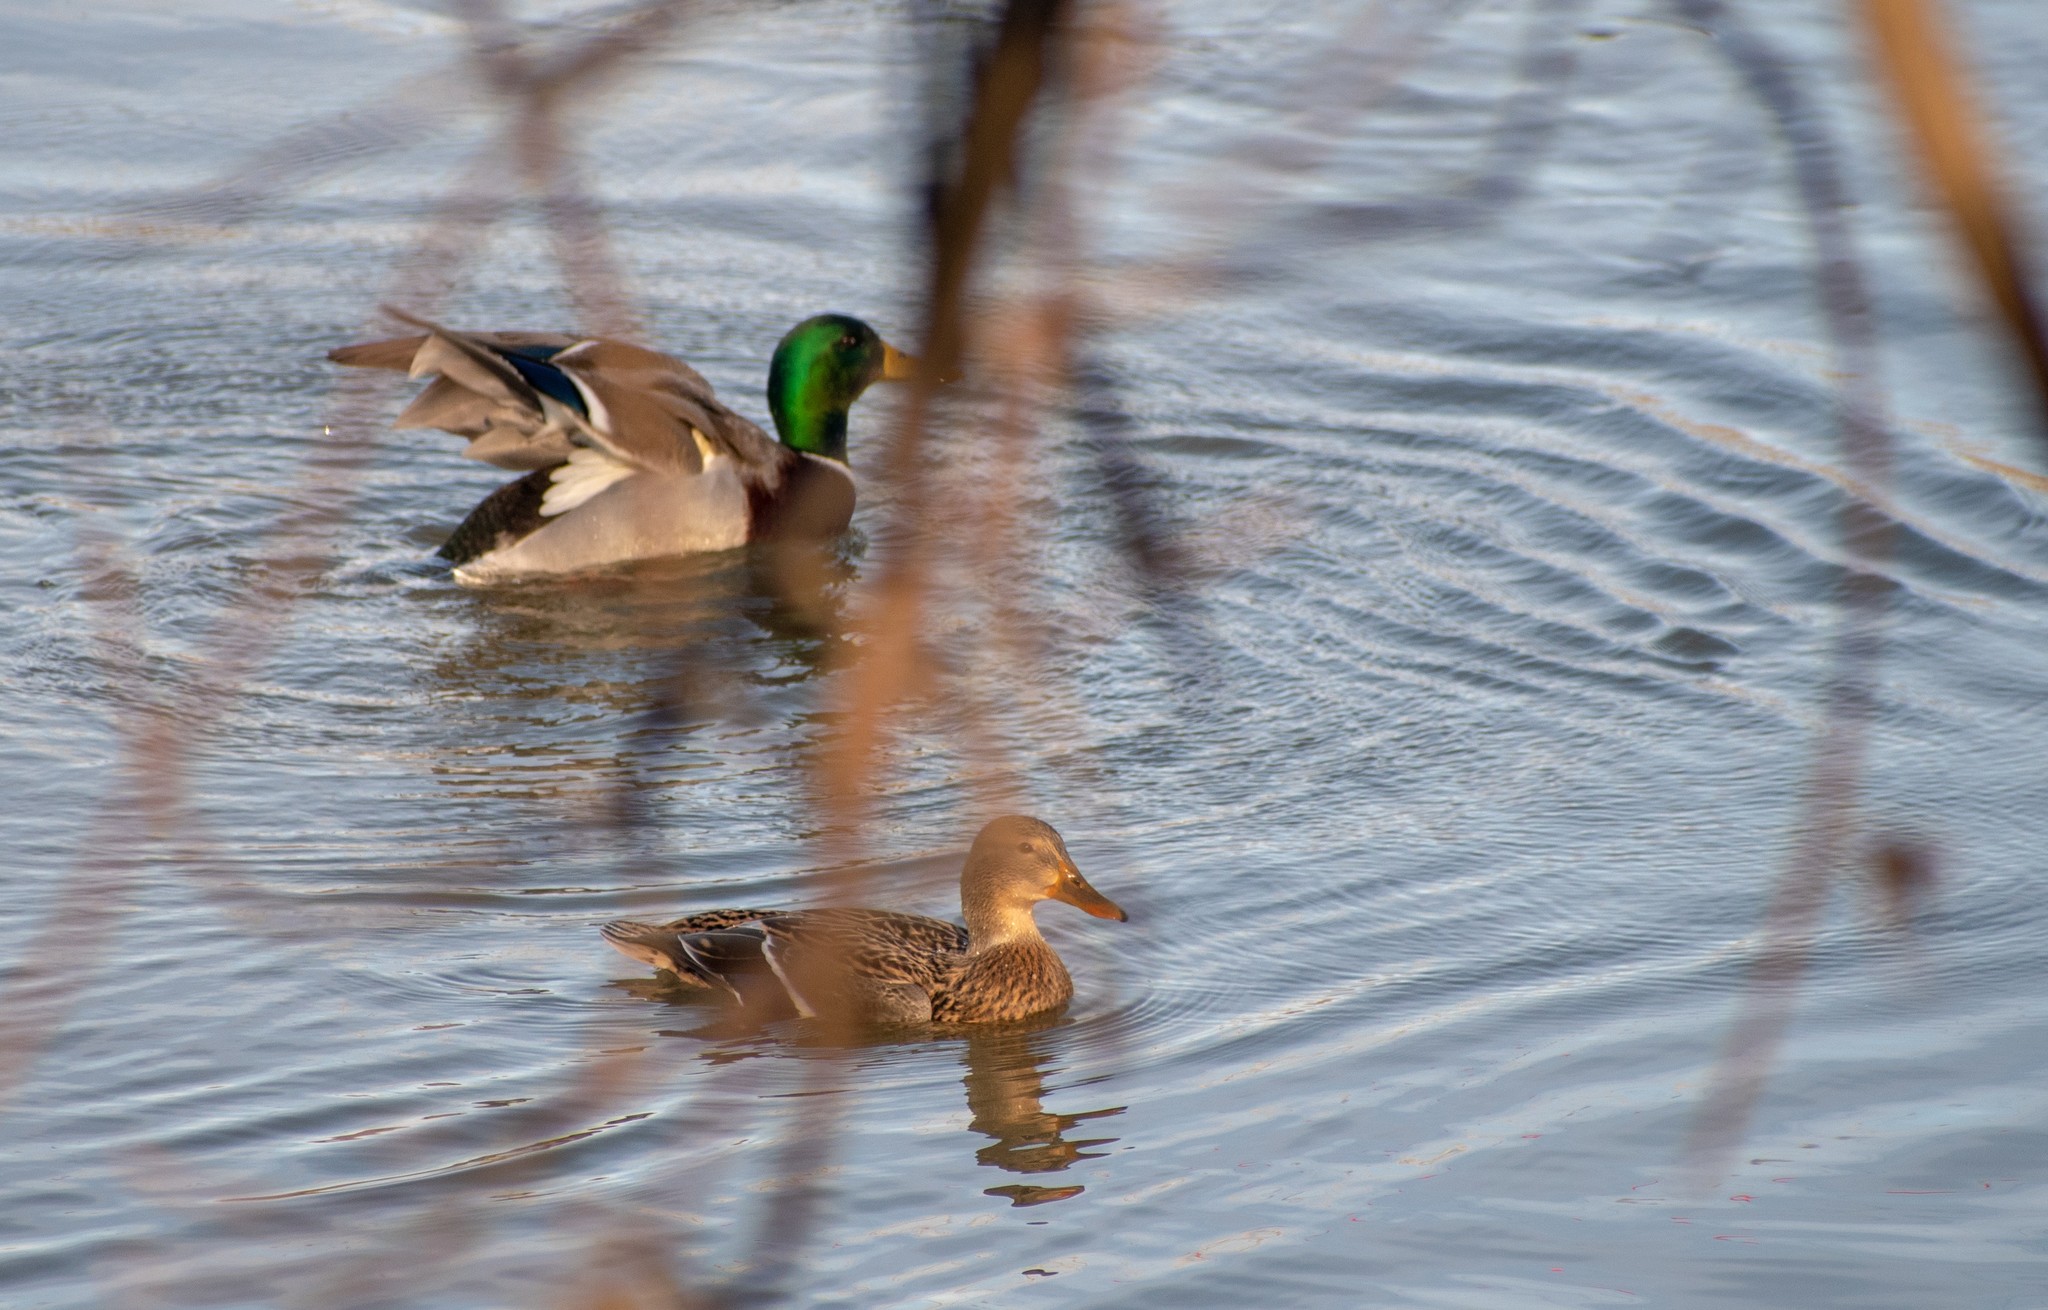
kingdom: Animalia
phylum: Chordata
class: Aves
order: Anseriformes
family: Anatidae
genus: Anas
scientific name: Anas platyrhynchos
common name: Mallard
